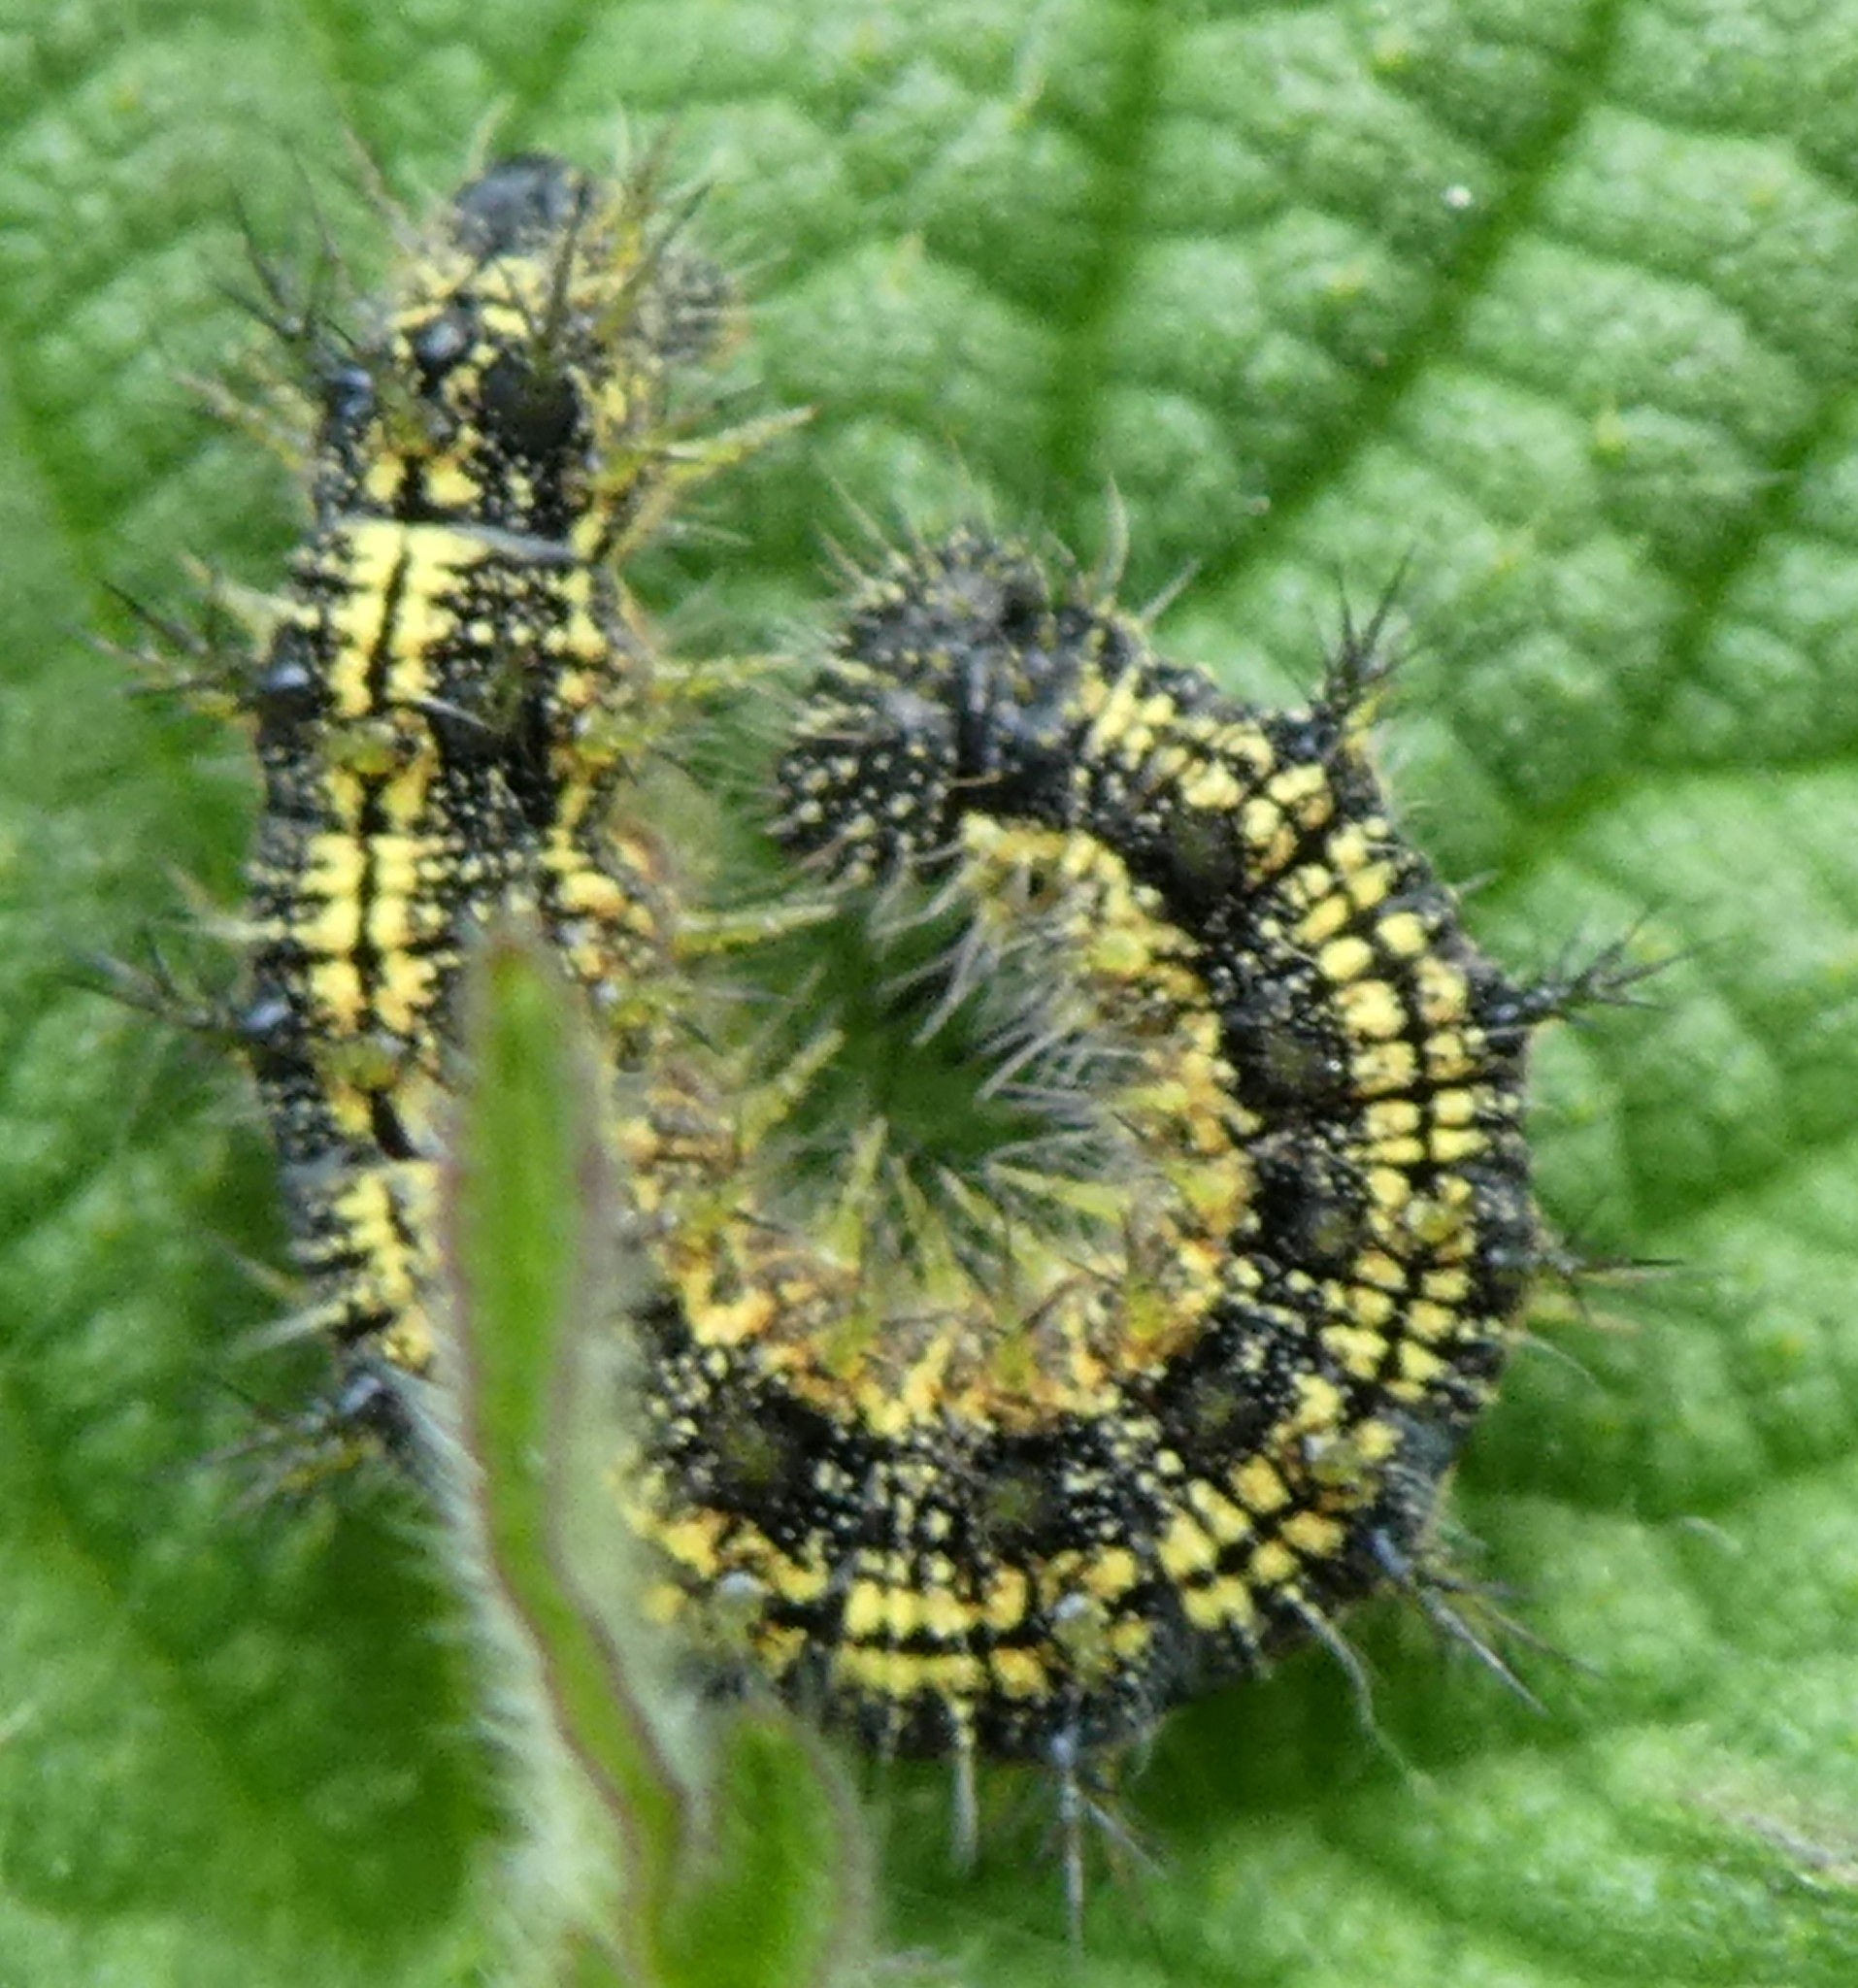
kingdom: Animalia
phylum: Arthropoda
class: Insecta
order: Lepidoptera
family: Nymphalidae
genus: Aglais
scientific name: Aglais urticae
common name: Small tortoiseshell
